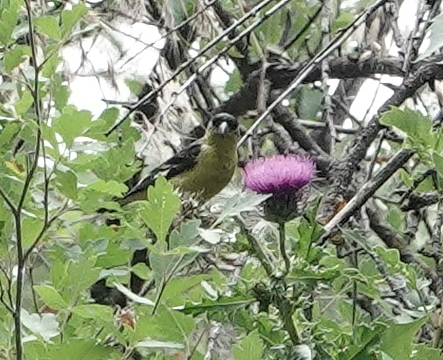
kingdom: Animalia
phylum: Chordata
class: Aves
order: Passeriformes
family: Fringillidae
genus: Spinus
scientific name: Spinus psaltria
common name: Lesser goldfinch
